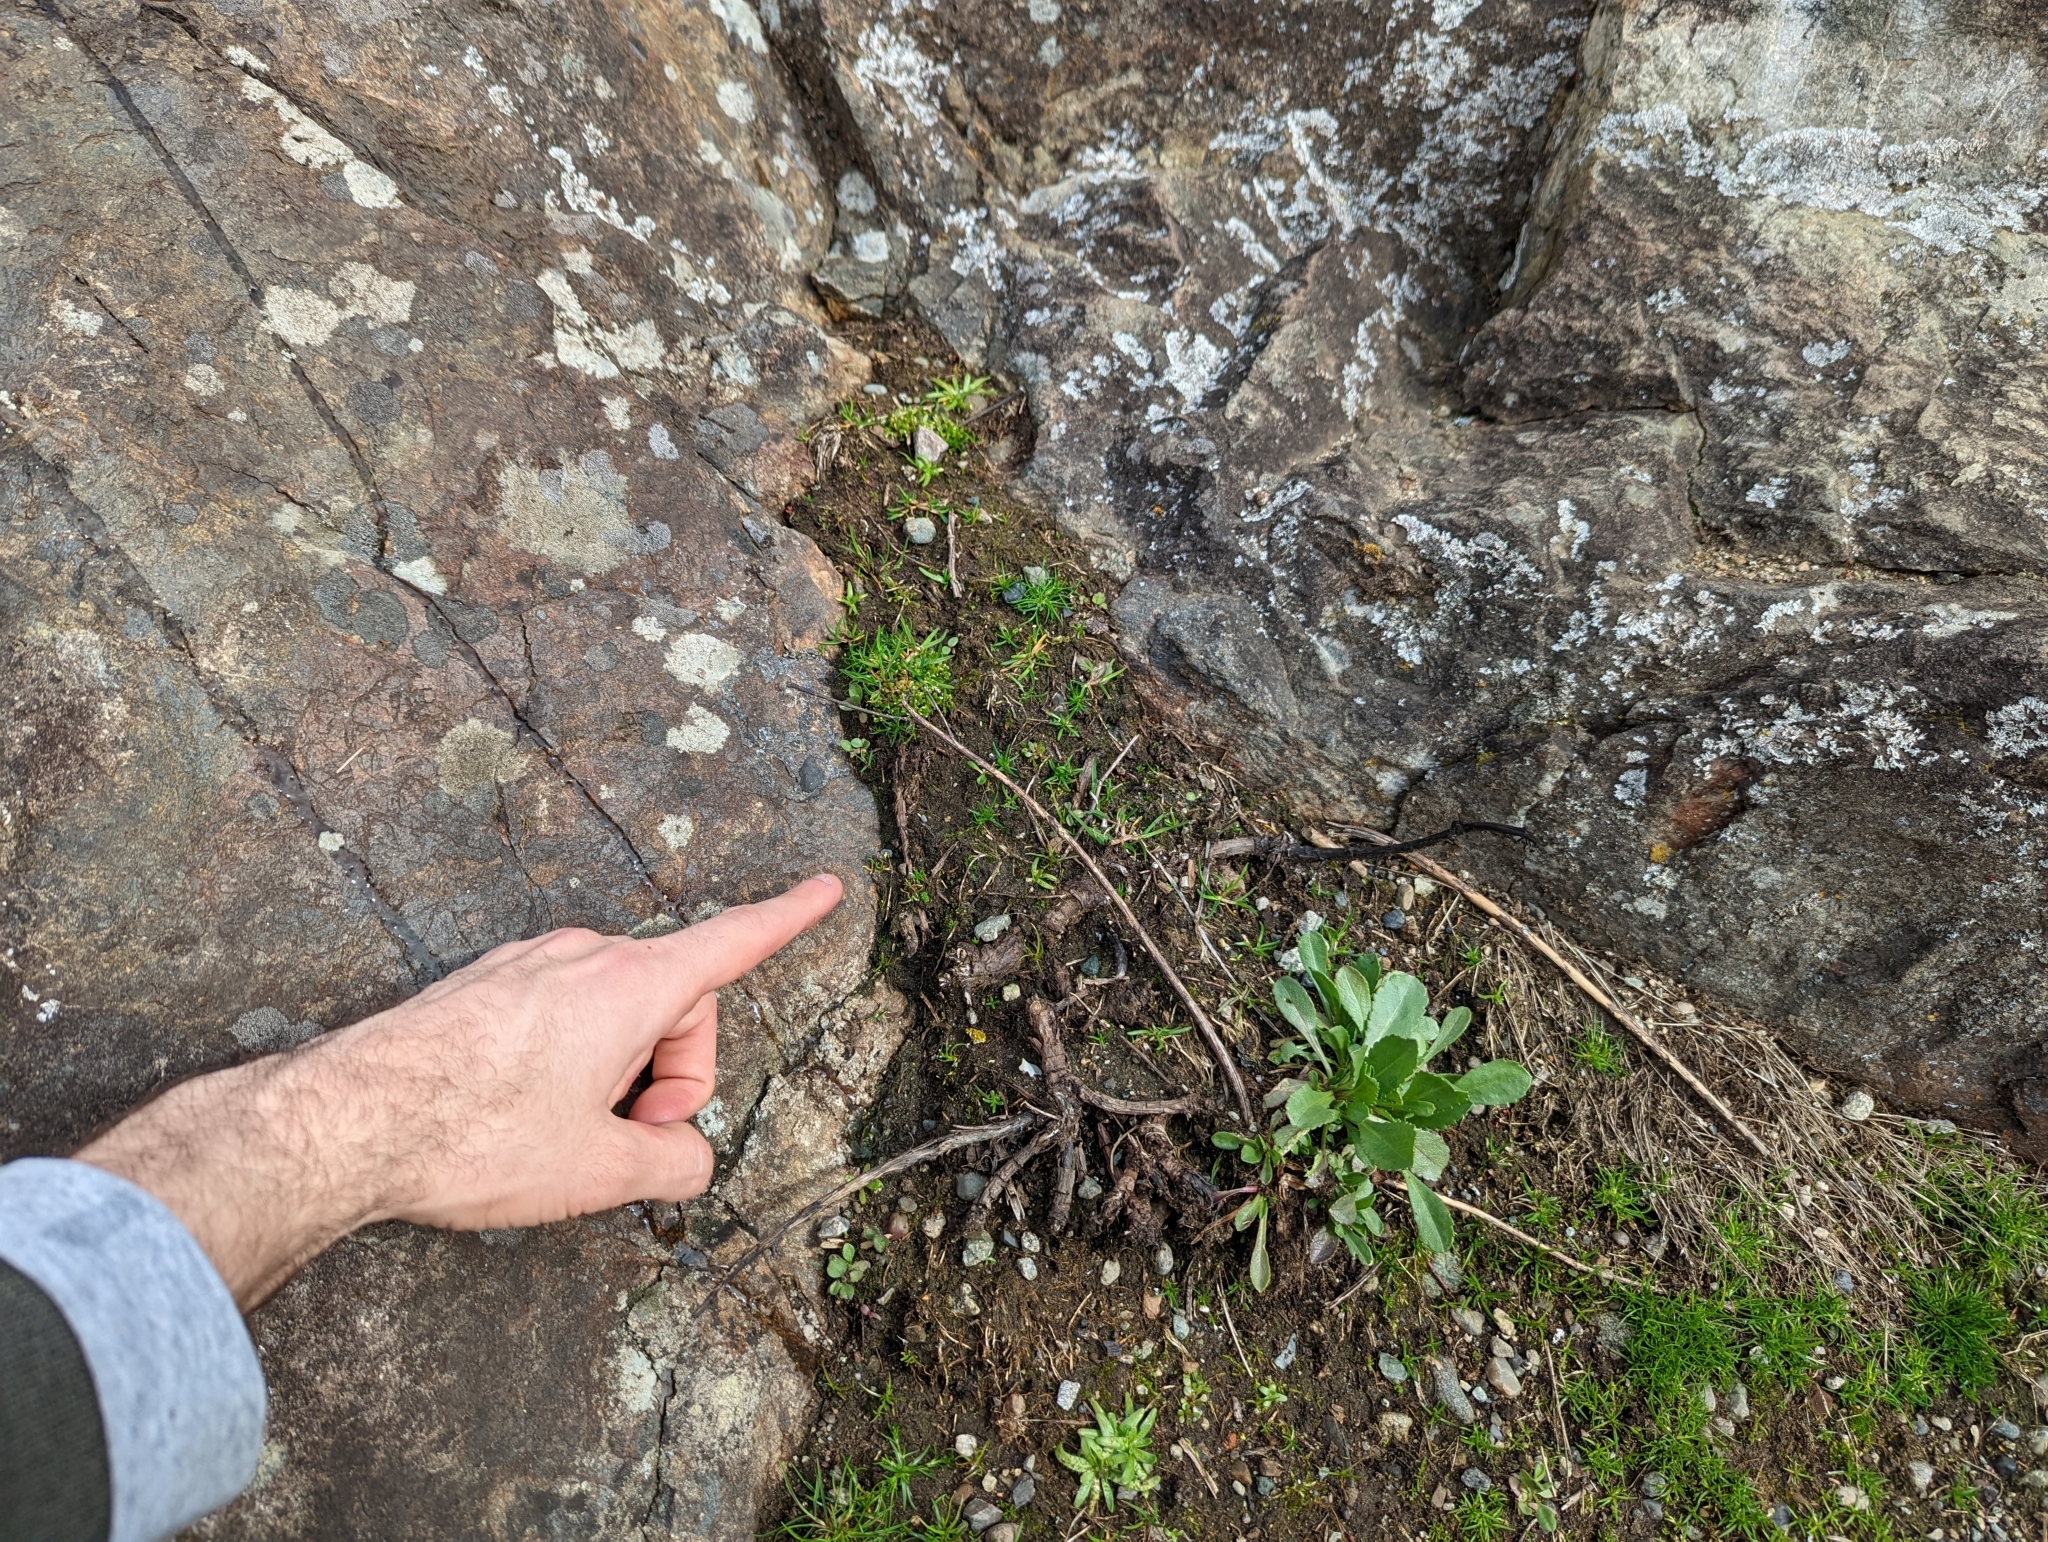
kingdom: Plantae
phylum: Marchantiophyta
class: Marchantiopsida
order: Sphaerocarpales
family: Sphaerocarpaceae
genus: Sphaerocarpos
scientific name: Sphaerocarpos texanus
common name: Texas balloonwort
